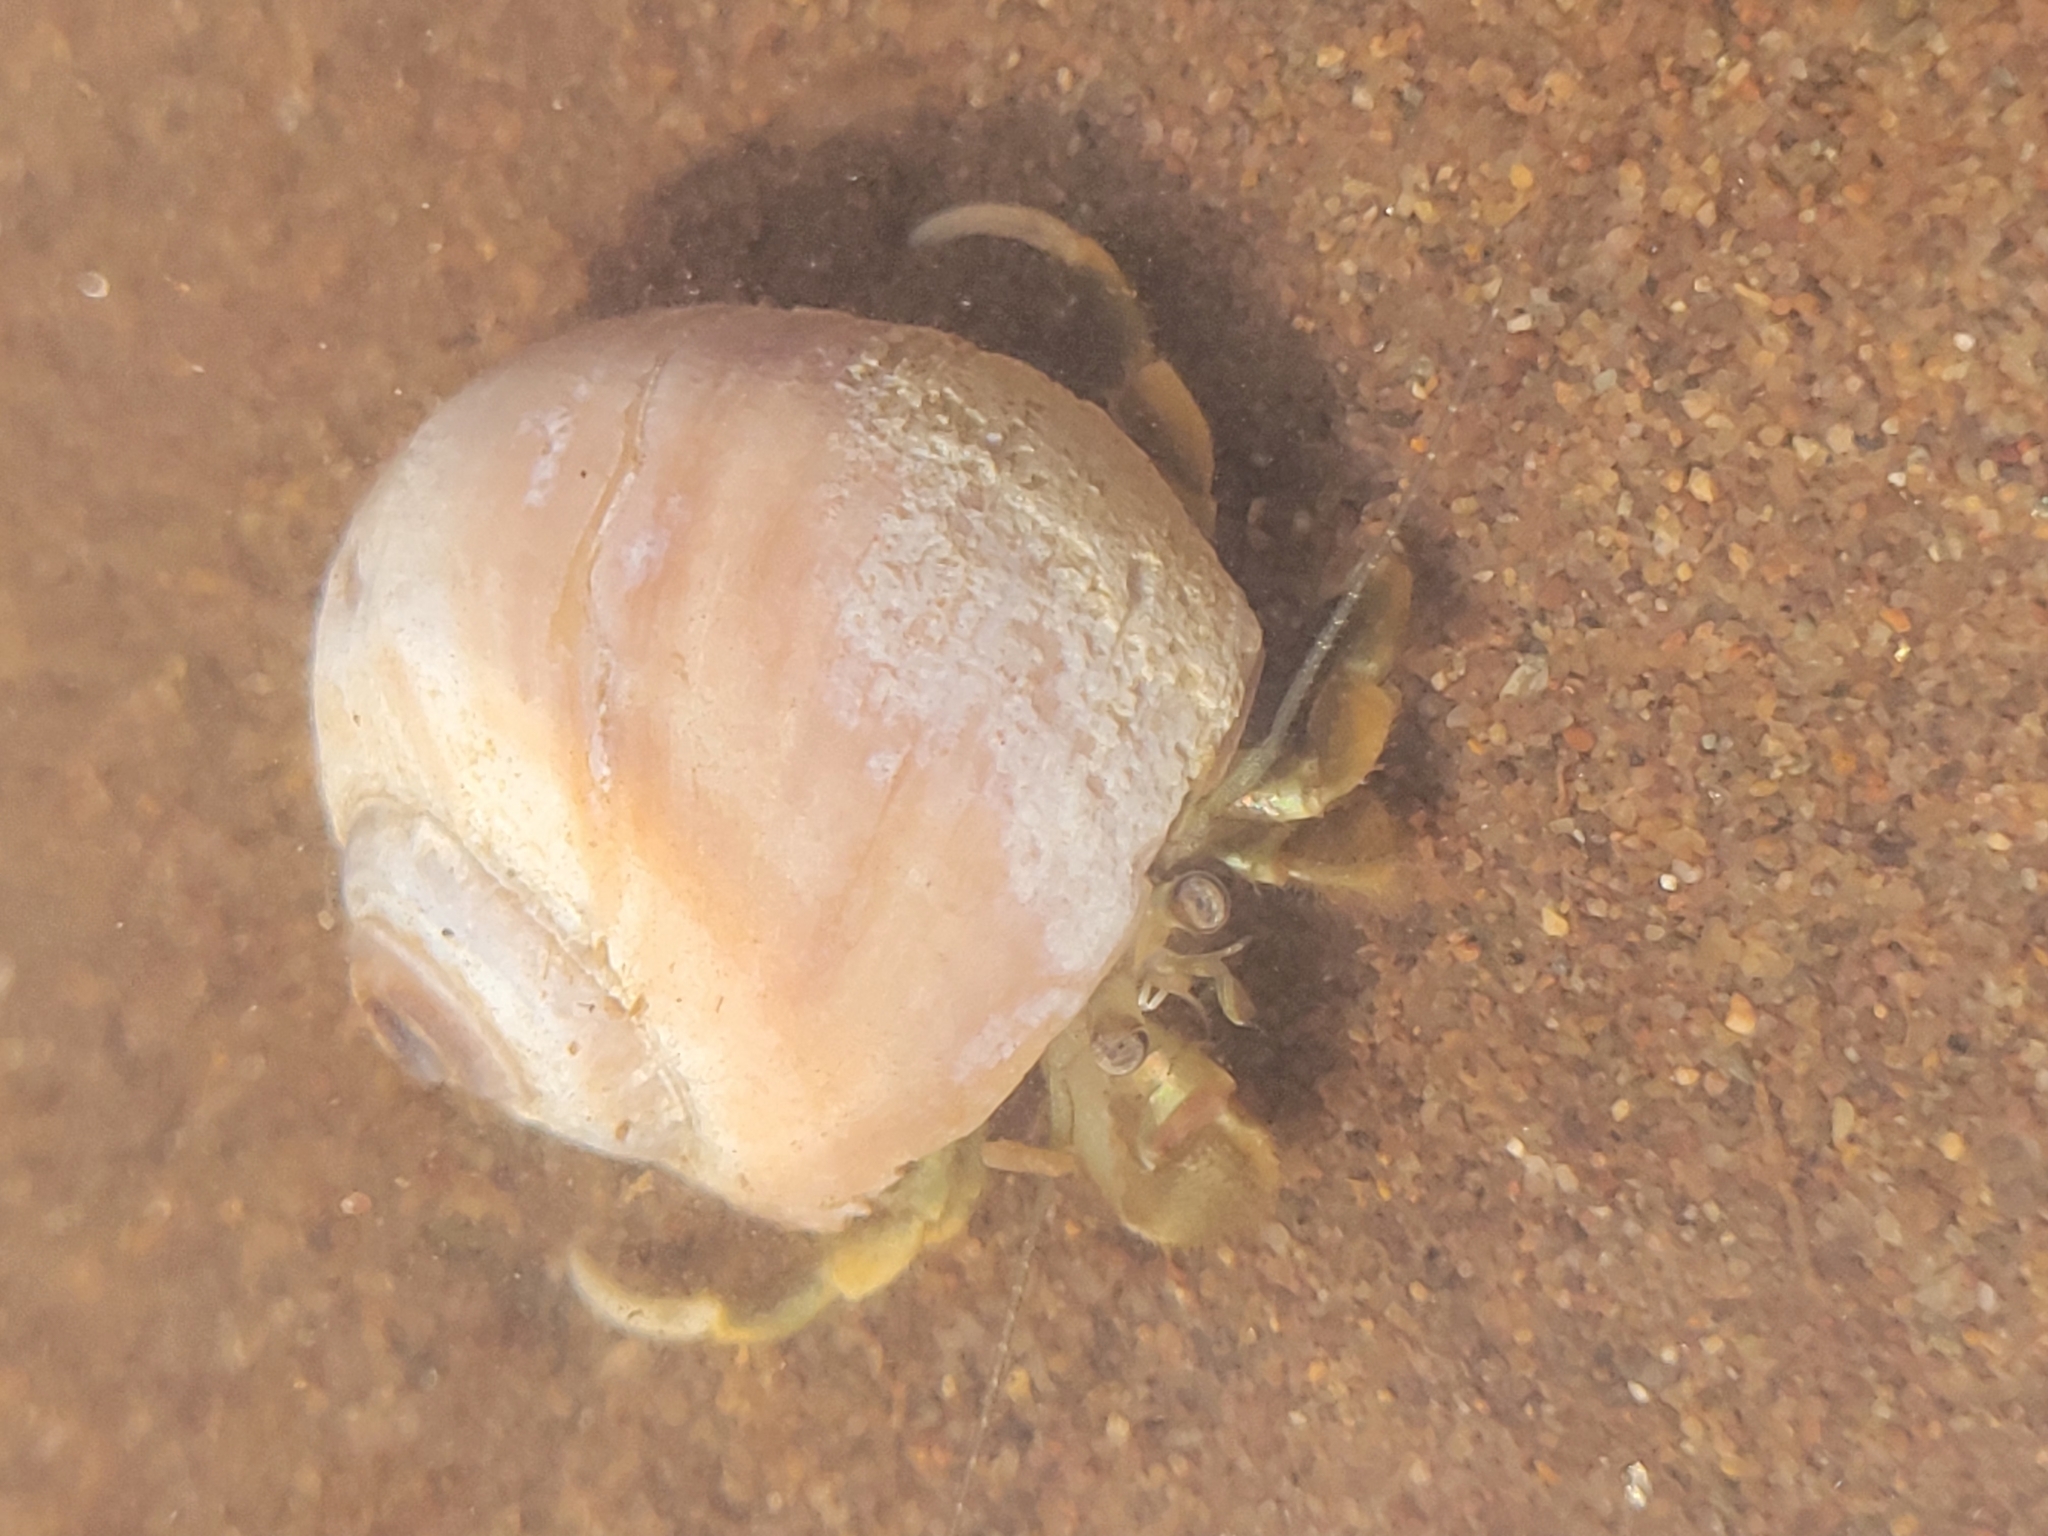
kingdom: Animalia
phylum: Arthropoda
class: Malacostraca
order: Decapoda
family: Paguridae
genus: Pagurus
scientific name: Pagurus longicarpus
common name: Long-armed hermit crab
